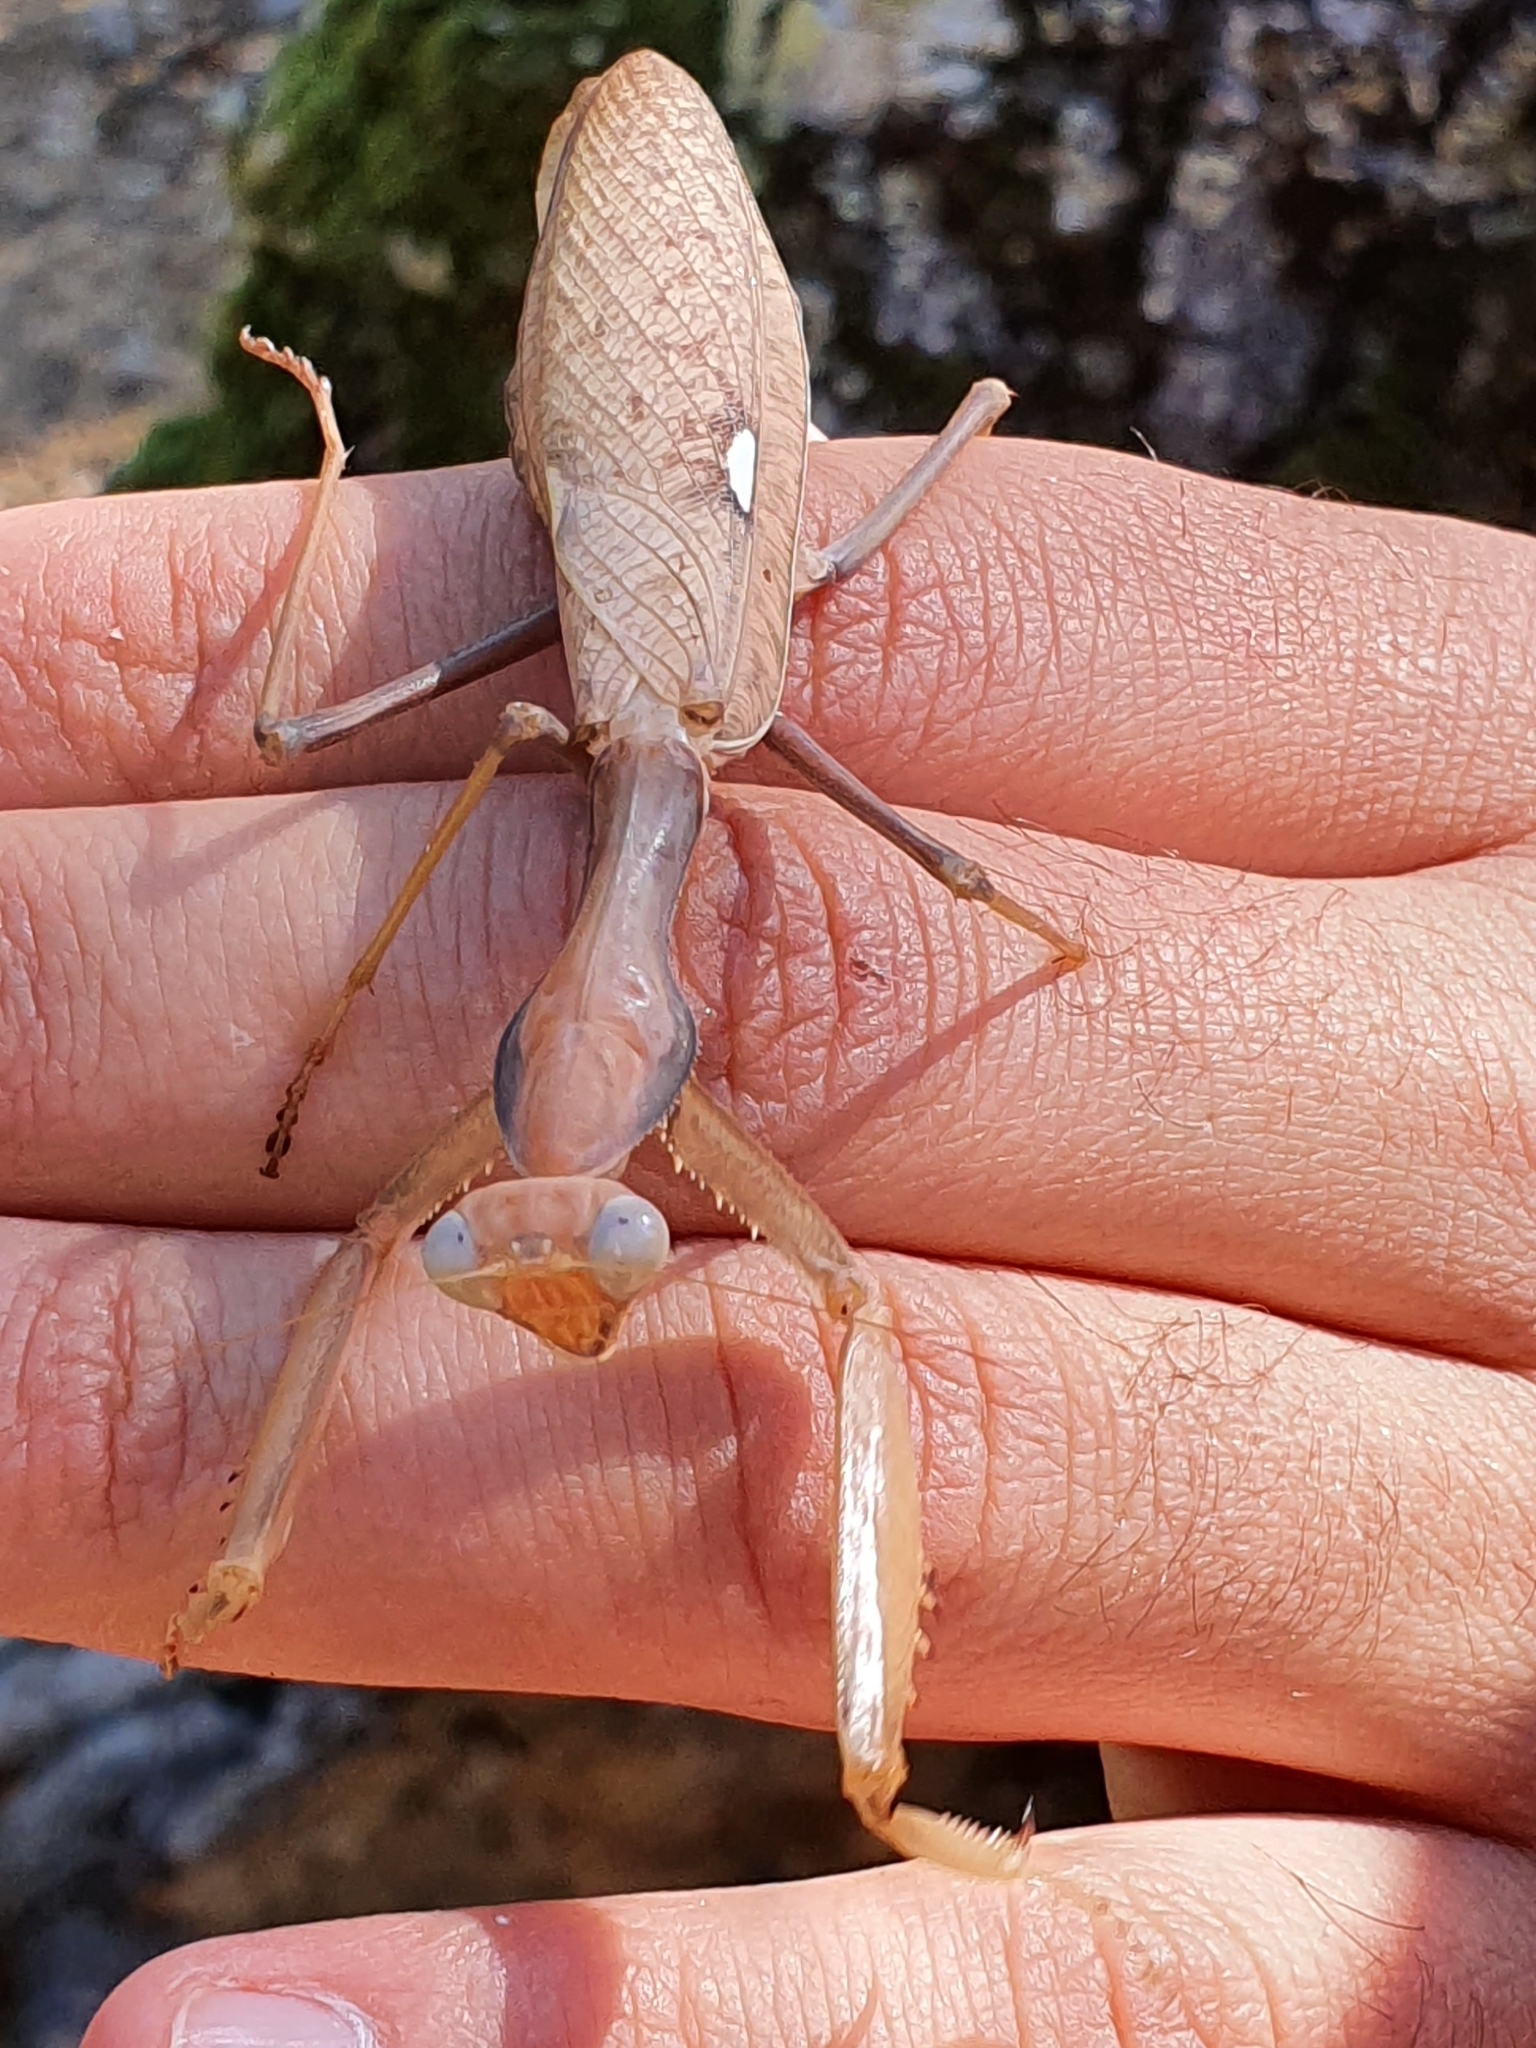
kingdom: Animalia
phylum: Arthropoda
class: Insecta
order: Mantodea
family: Mantidae
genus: Sphodromantis
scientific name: Sphodromantis viridis
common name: Giant african mantis
